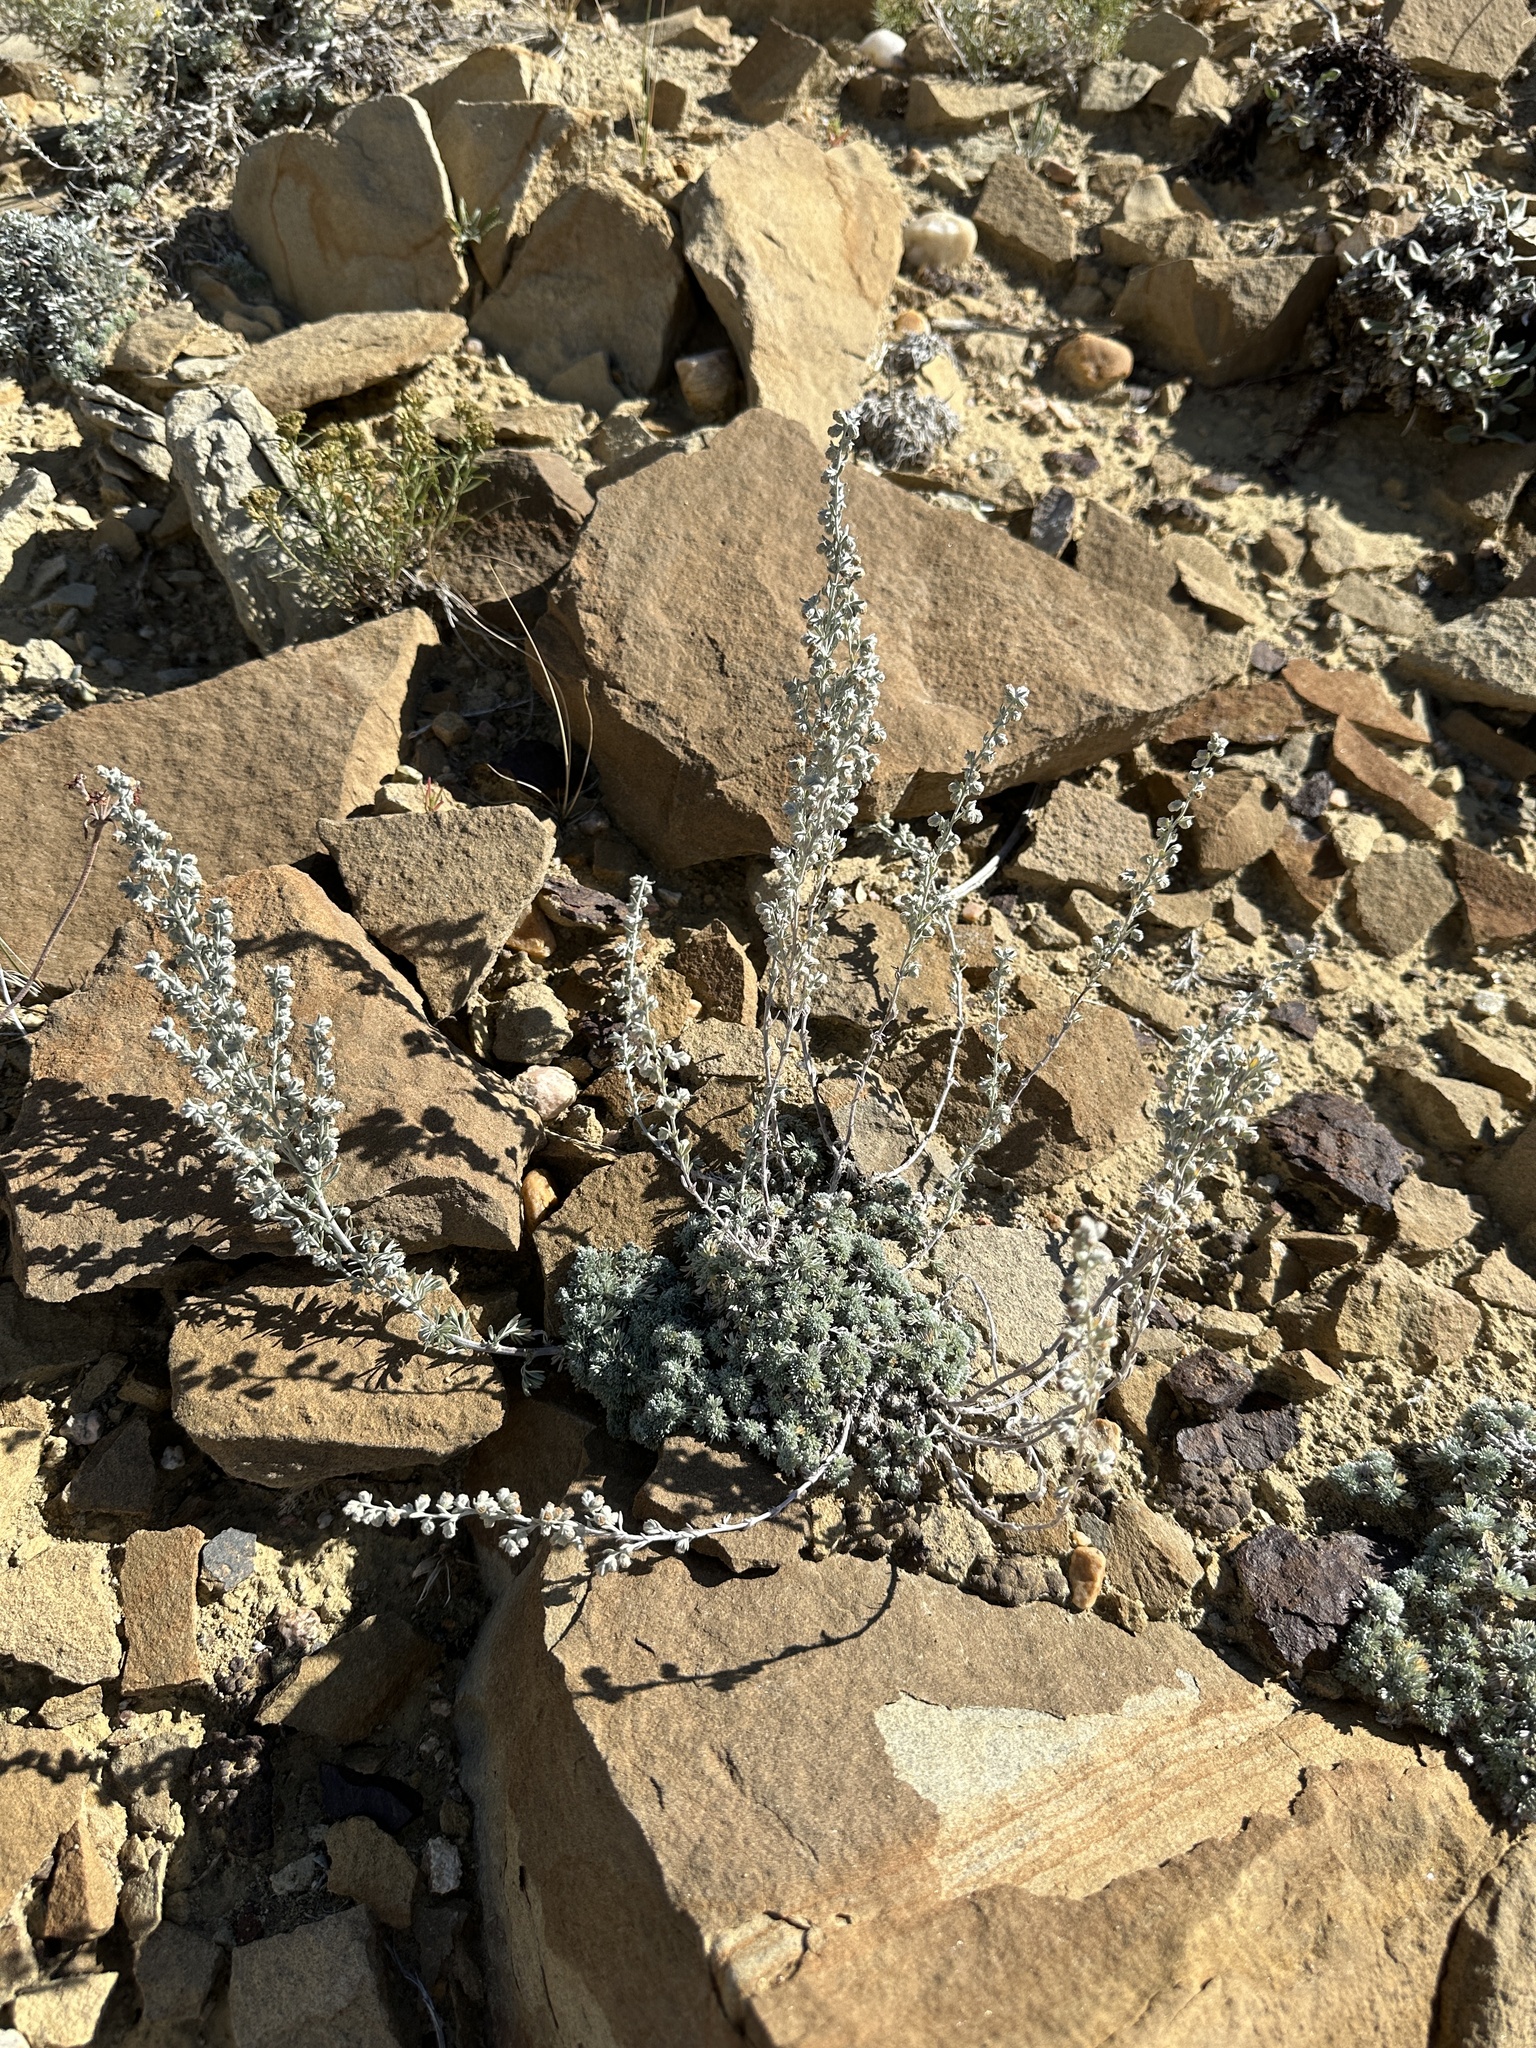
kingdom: Plantae
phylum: Tracheophyta
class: Magnoliopsida
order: Asterales
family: Asteraceae
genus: Artemisia
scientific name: Artemisia frigida
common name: Prairie sagewort
